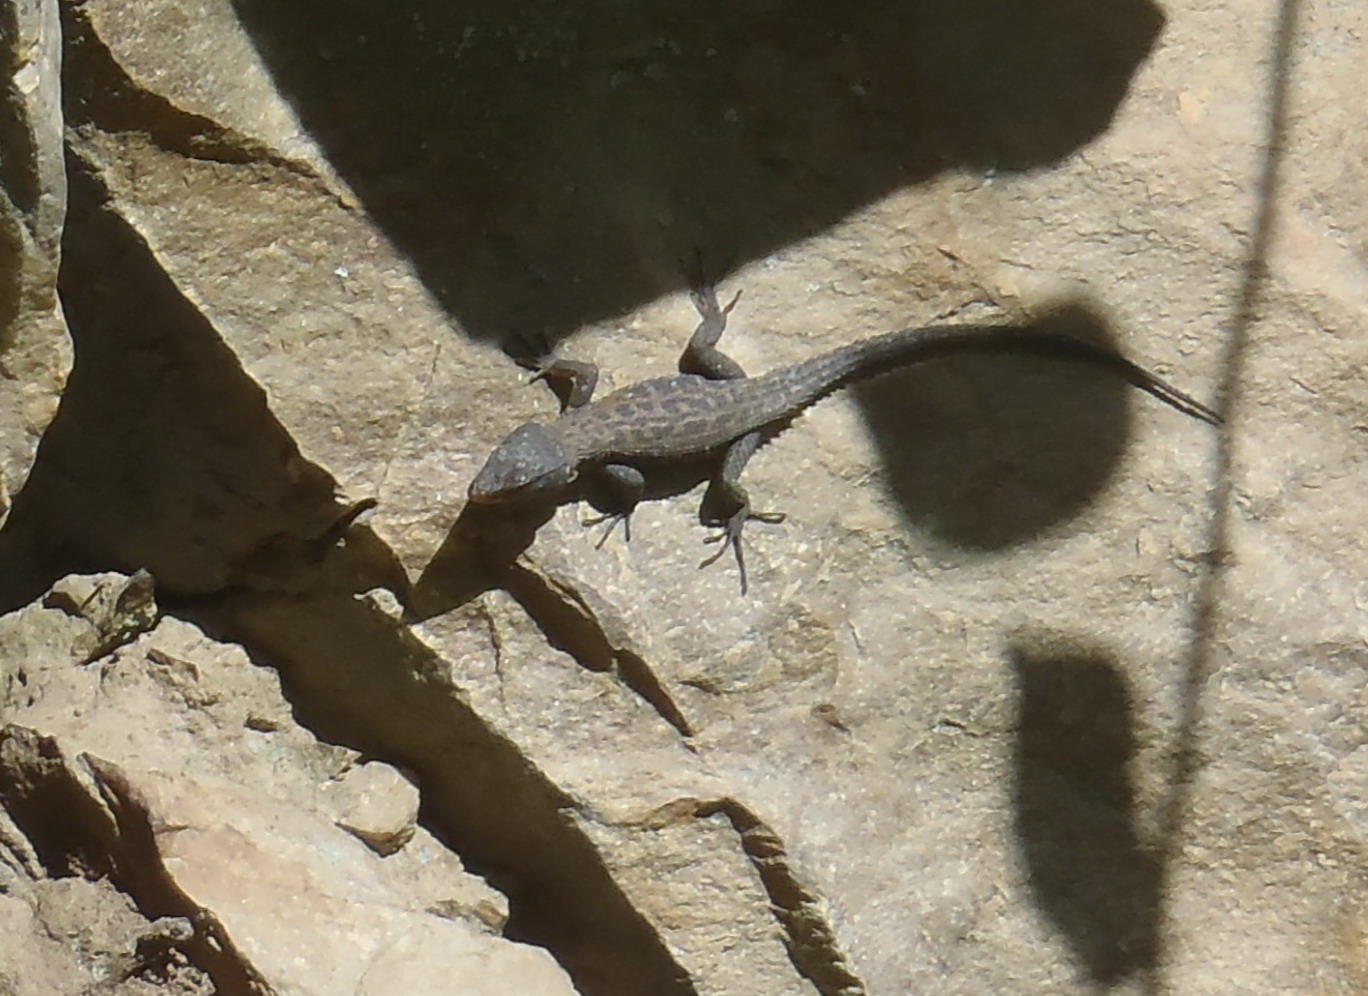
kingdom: Animalia
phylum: Chordata
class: Squamata
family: Cordylidae
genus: Ninurta
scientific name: Ninurta coeruleopunctatus
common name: Blue-spotted girdled lizard
